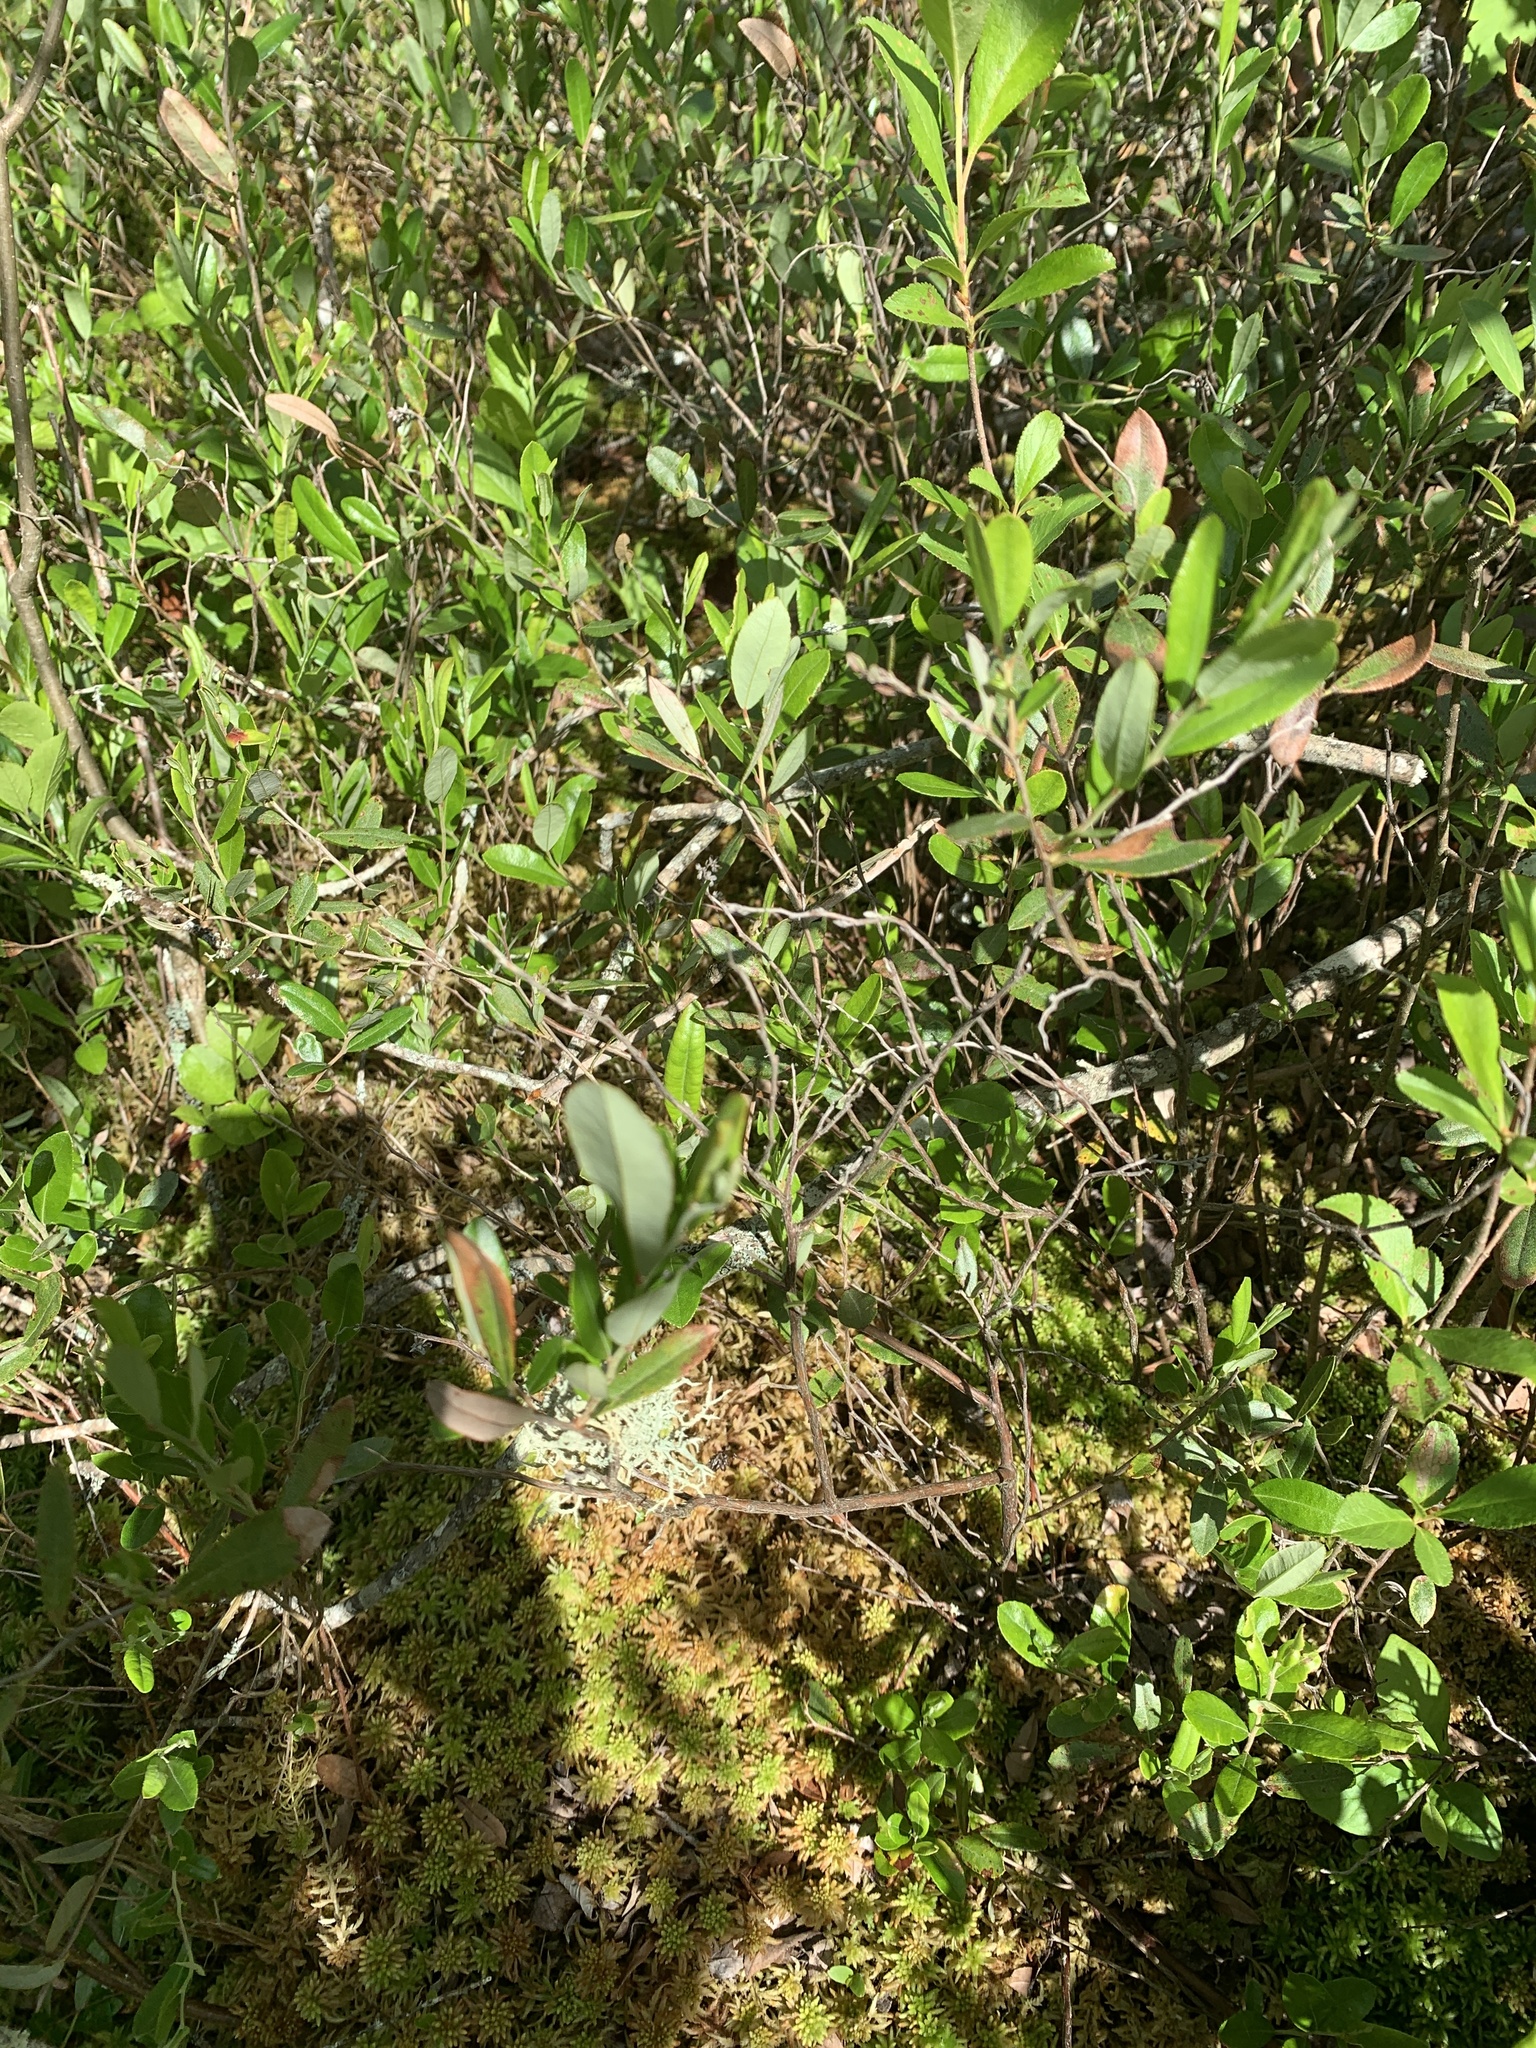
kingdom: Plantae
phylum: Tracheophyta
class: Magnoliopsida
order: Ericales
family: Ericaceae
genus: Chamaedaphne
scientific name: Chamaedaphne calyculata
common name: Leatherleaf
